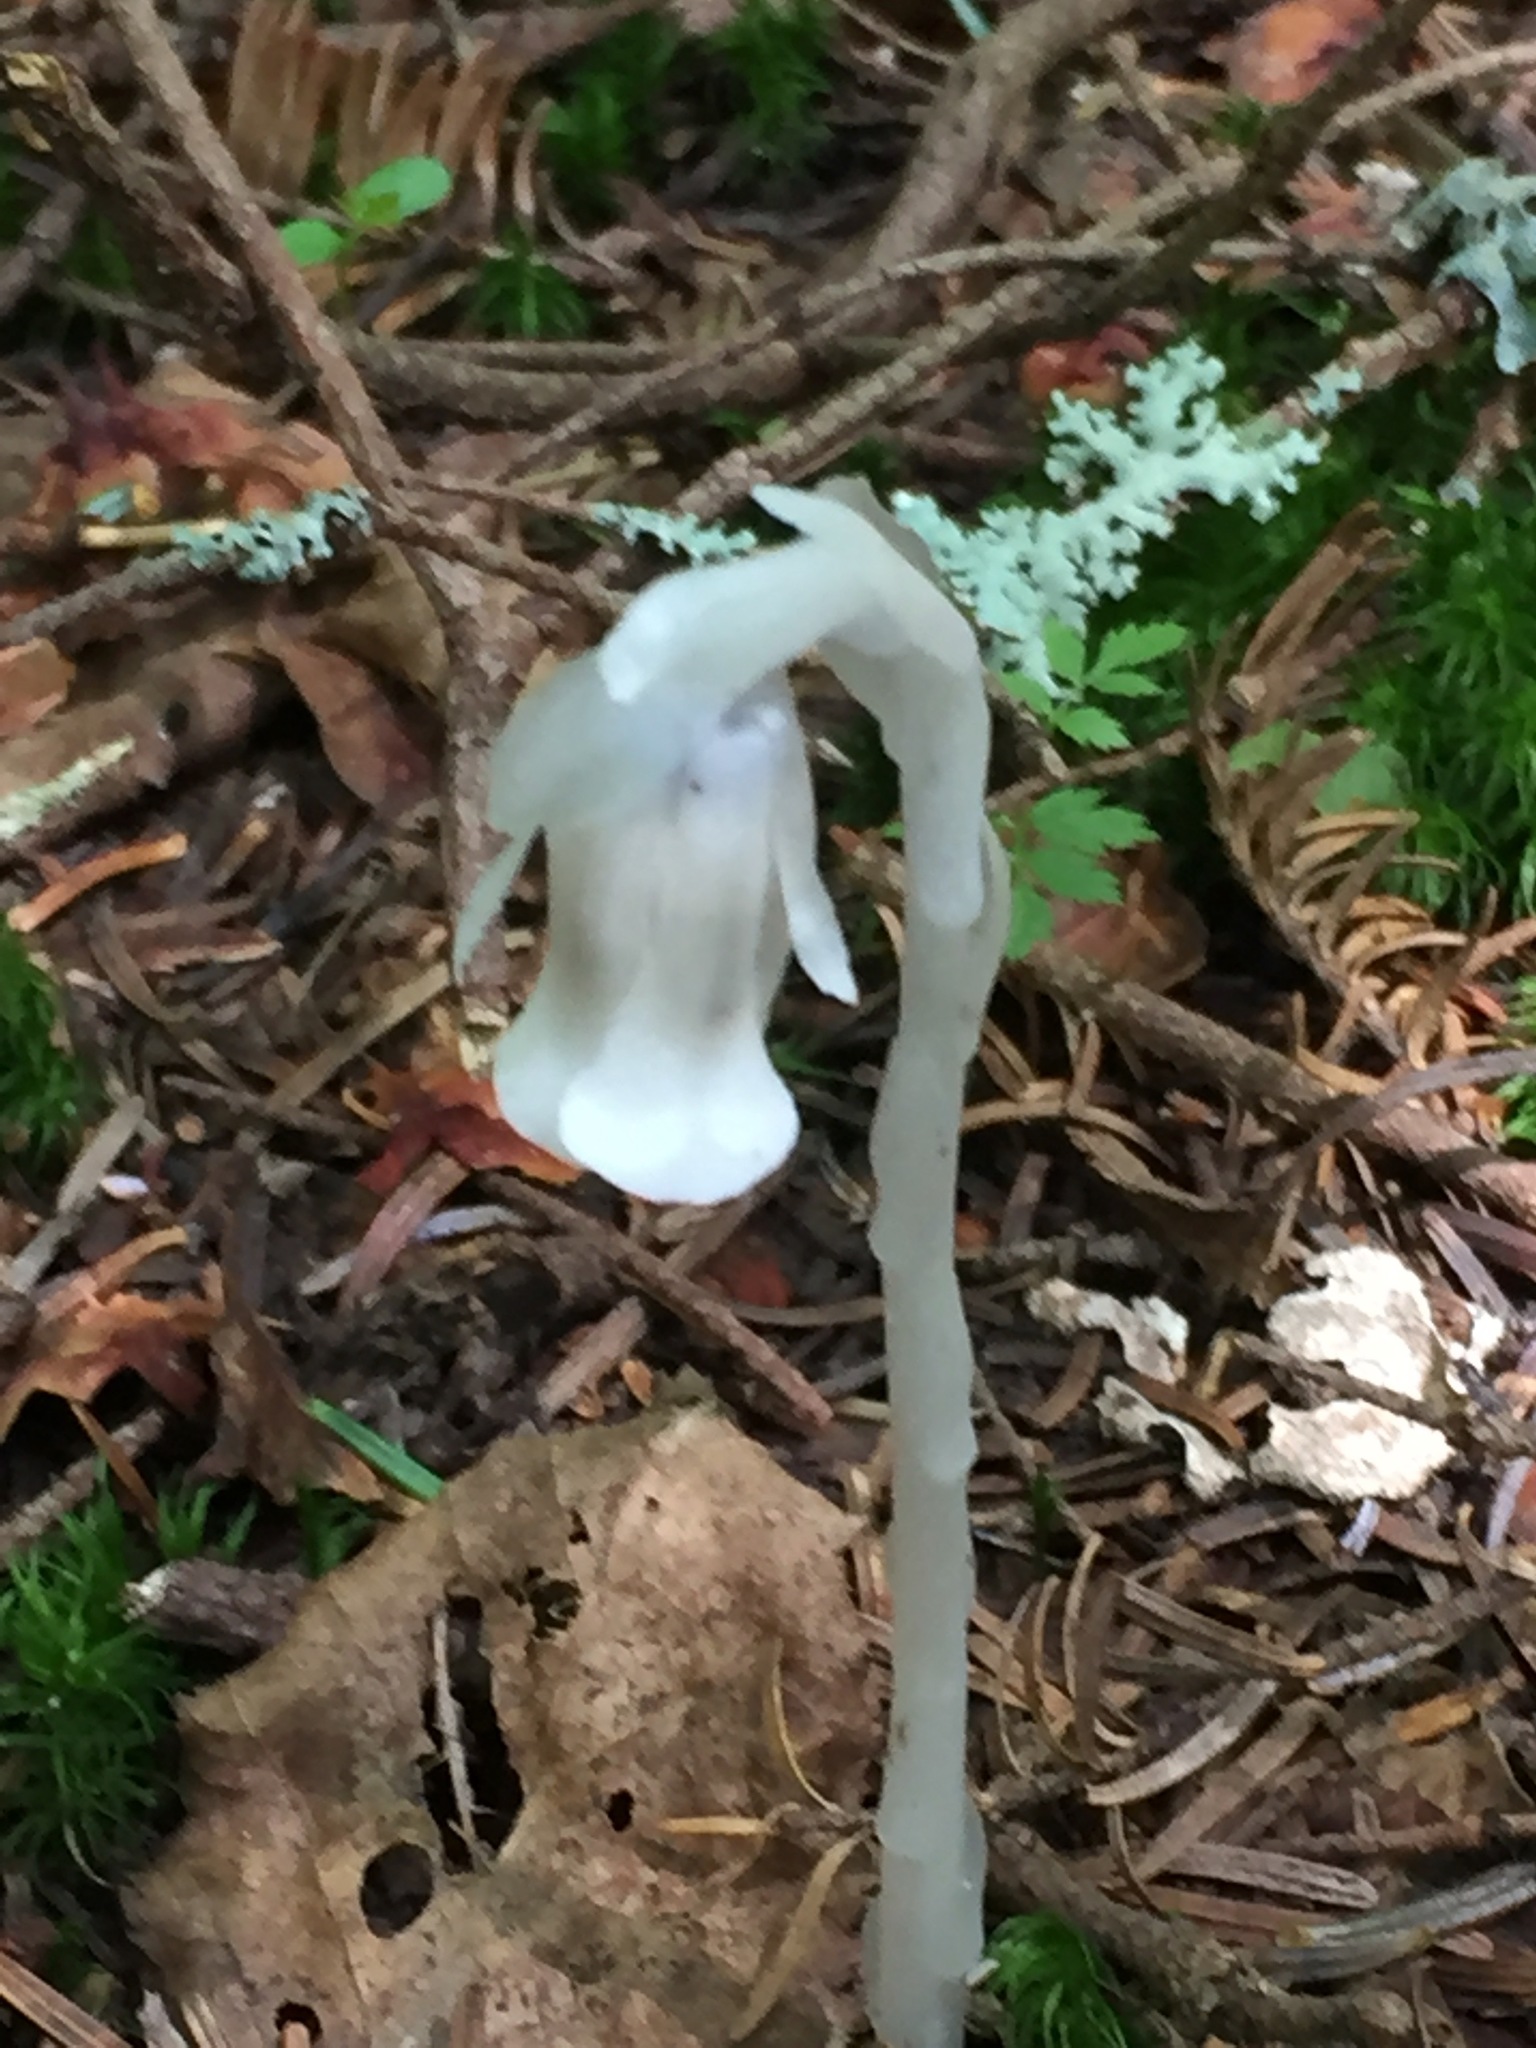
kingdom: Plantae
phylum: Tracheophyta
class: Magnoliopsida
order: Ericales
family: Ericaceae
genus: Monotropa
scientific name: Monotropa uniflora
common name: Convulsion root
